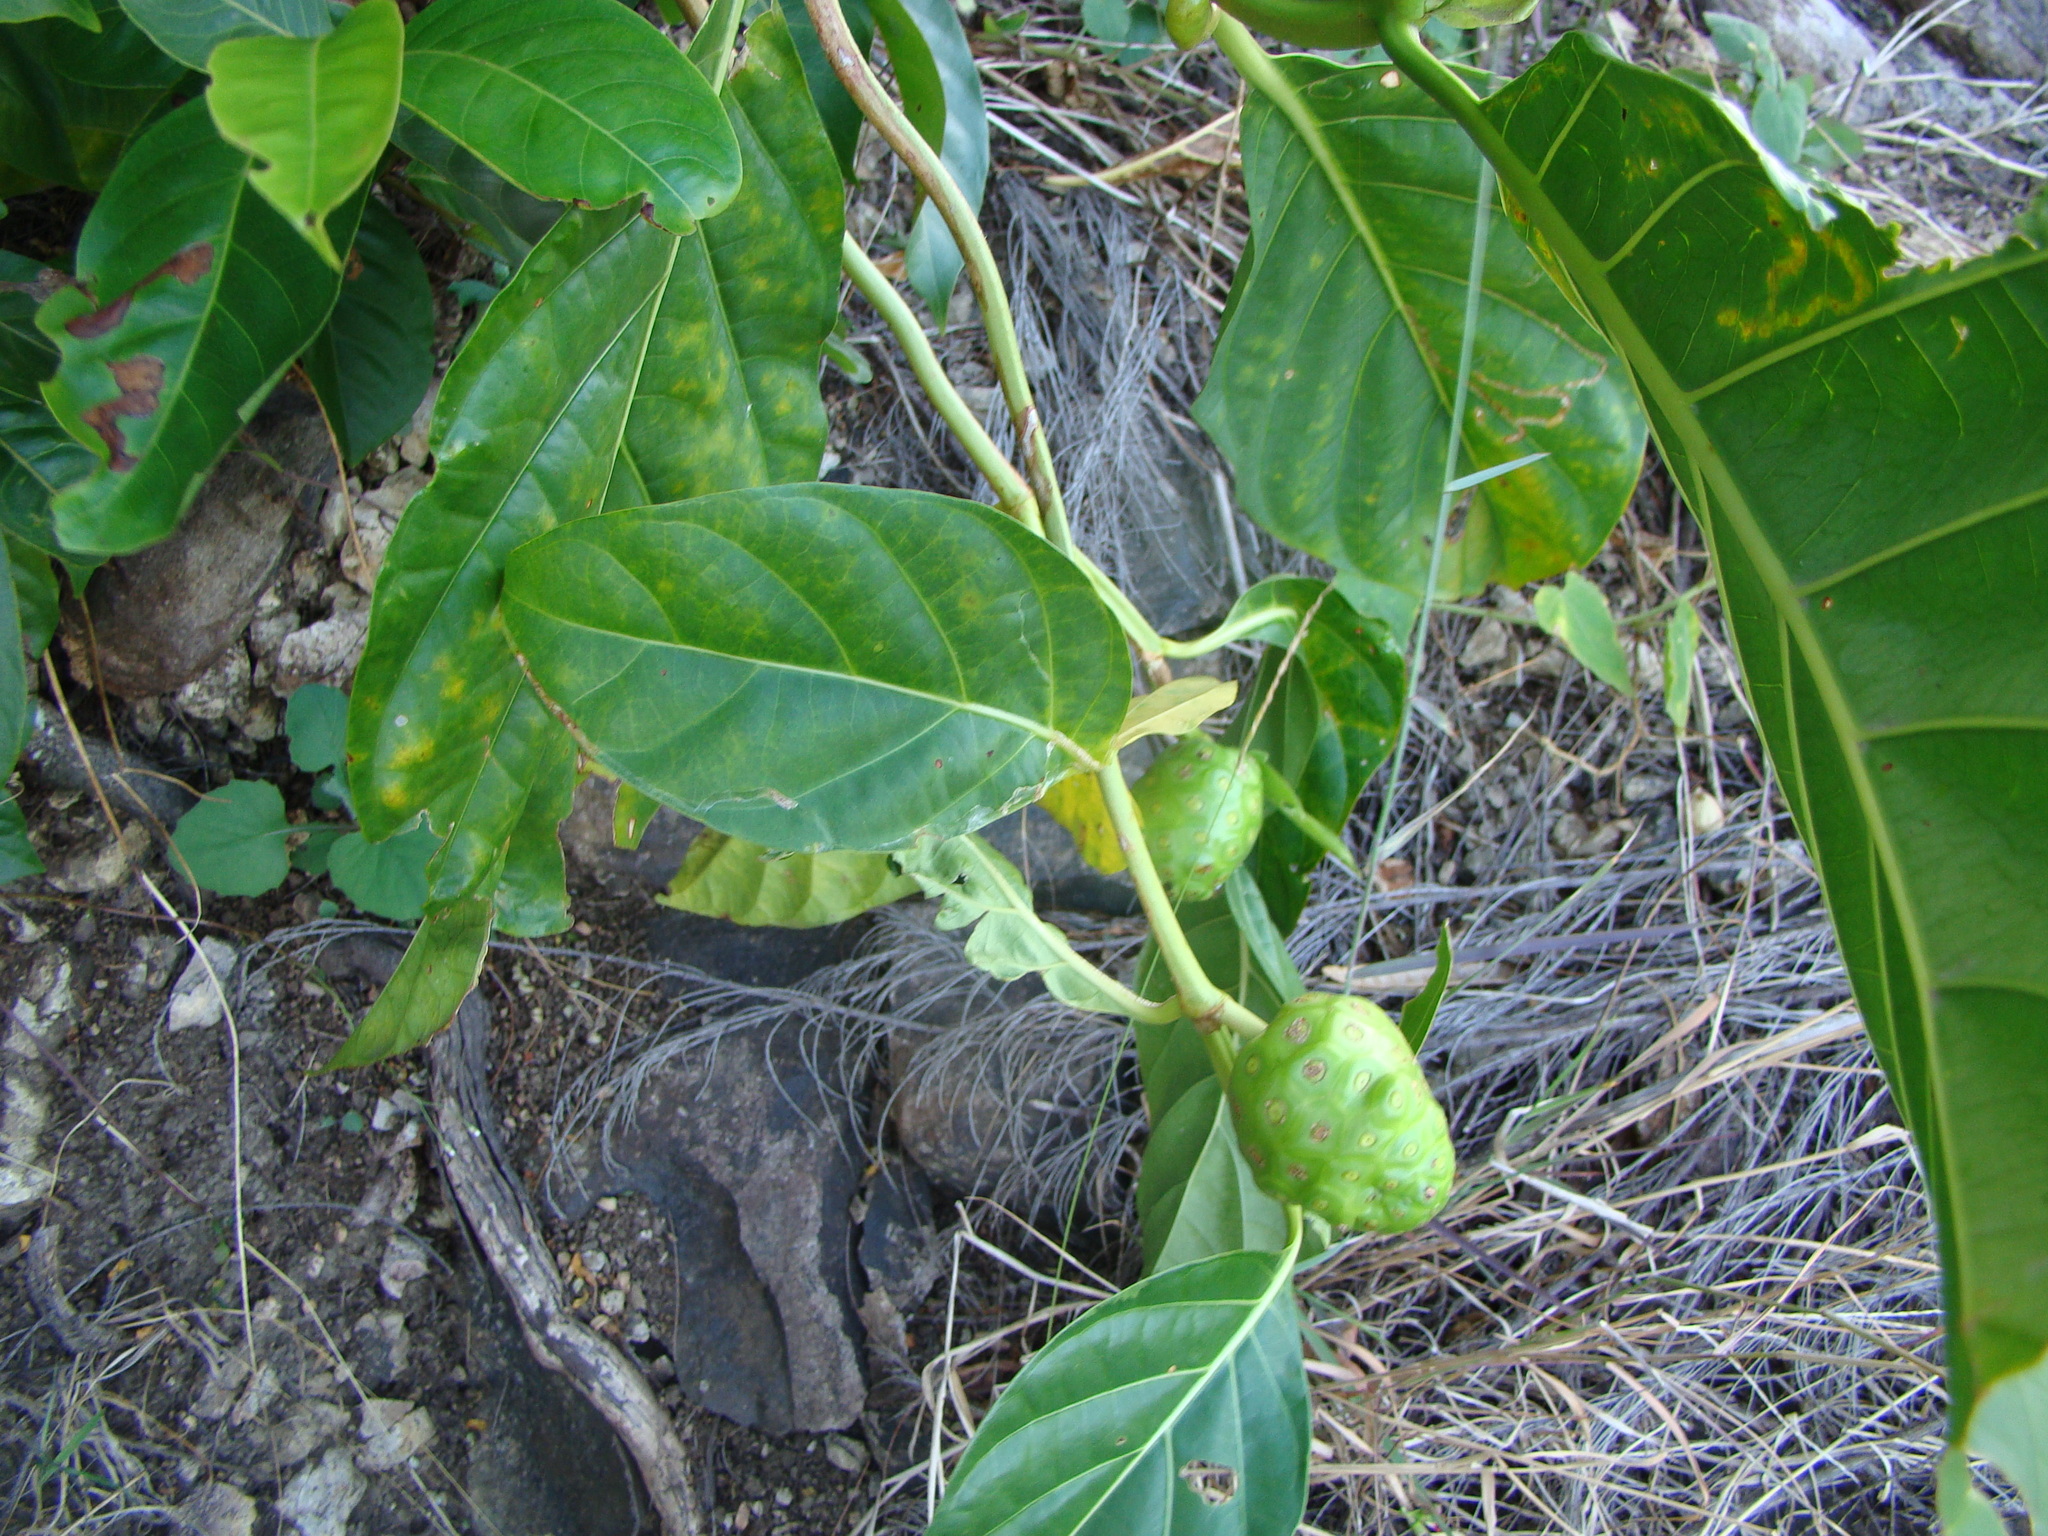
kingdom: Plantae
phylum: Tracheophyta
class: Magnoliopsida
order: Gentianales
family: Rubiaceae
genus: Morinda
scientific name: Morinda citrifolia
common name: Indian-mulberry
